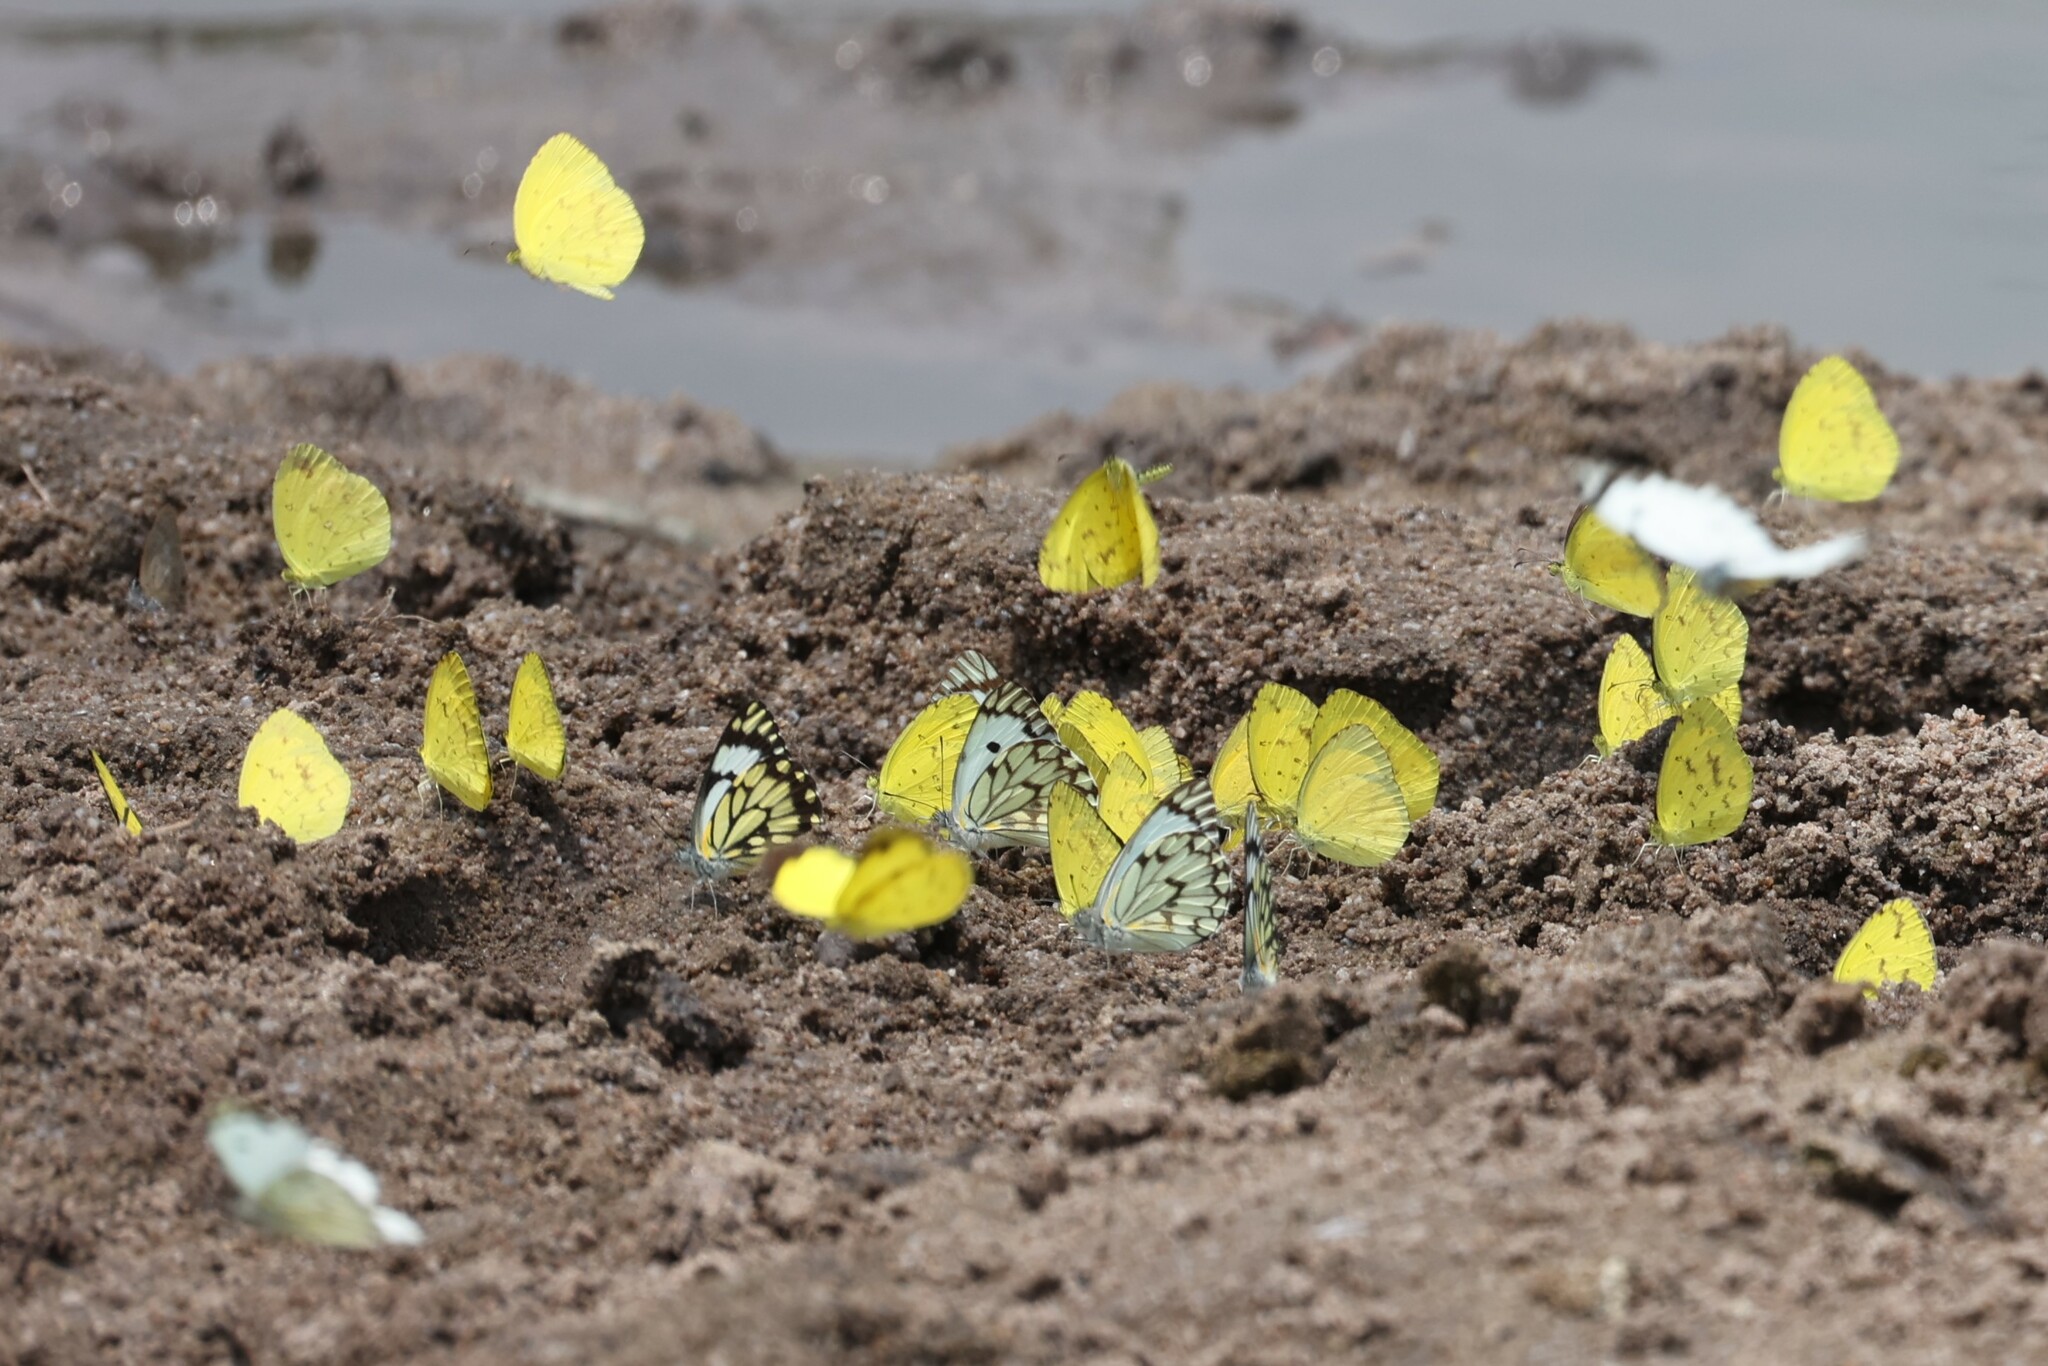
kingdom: Animalia
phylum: Arthropoda
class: Insecta
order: Lepidoptera
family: Pieridae
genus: Eurema
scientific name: Eurema regularis
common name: Regular grass yellow
